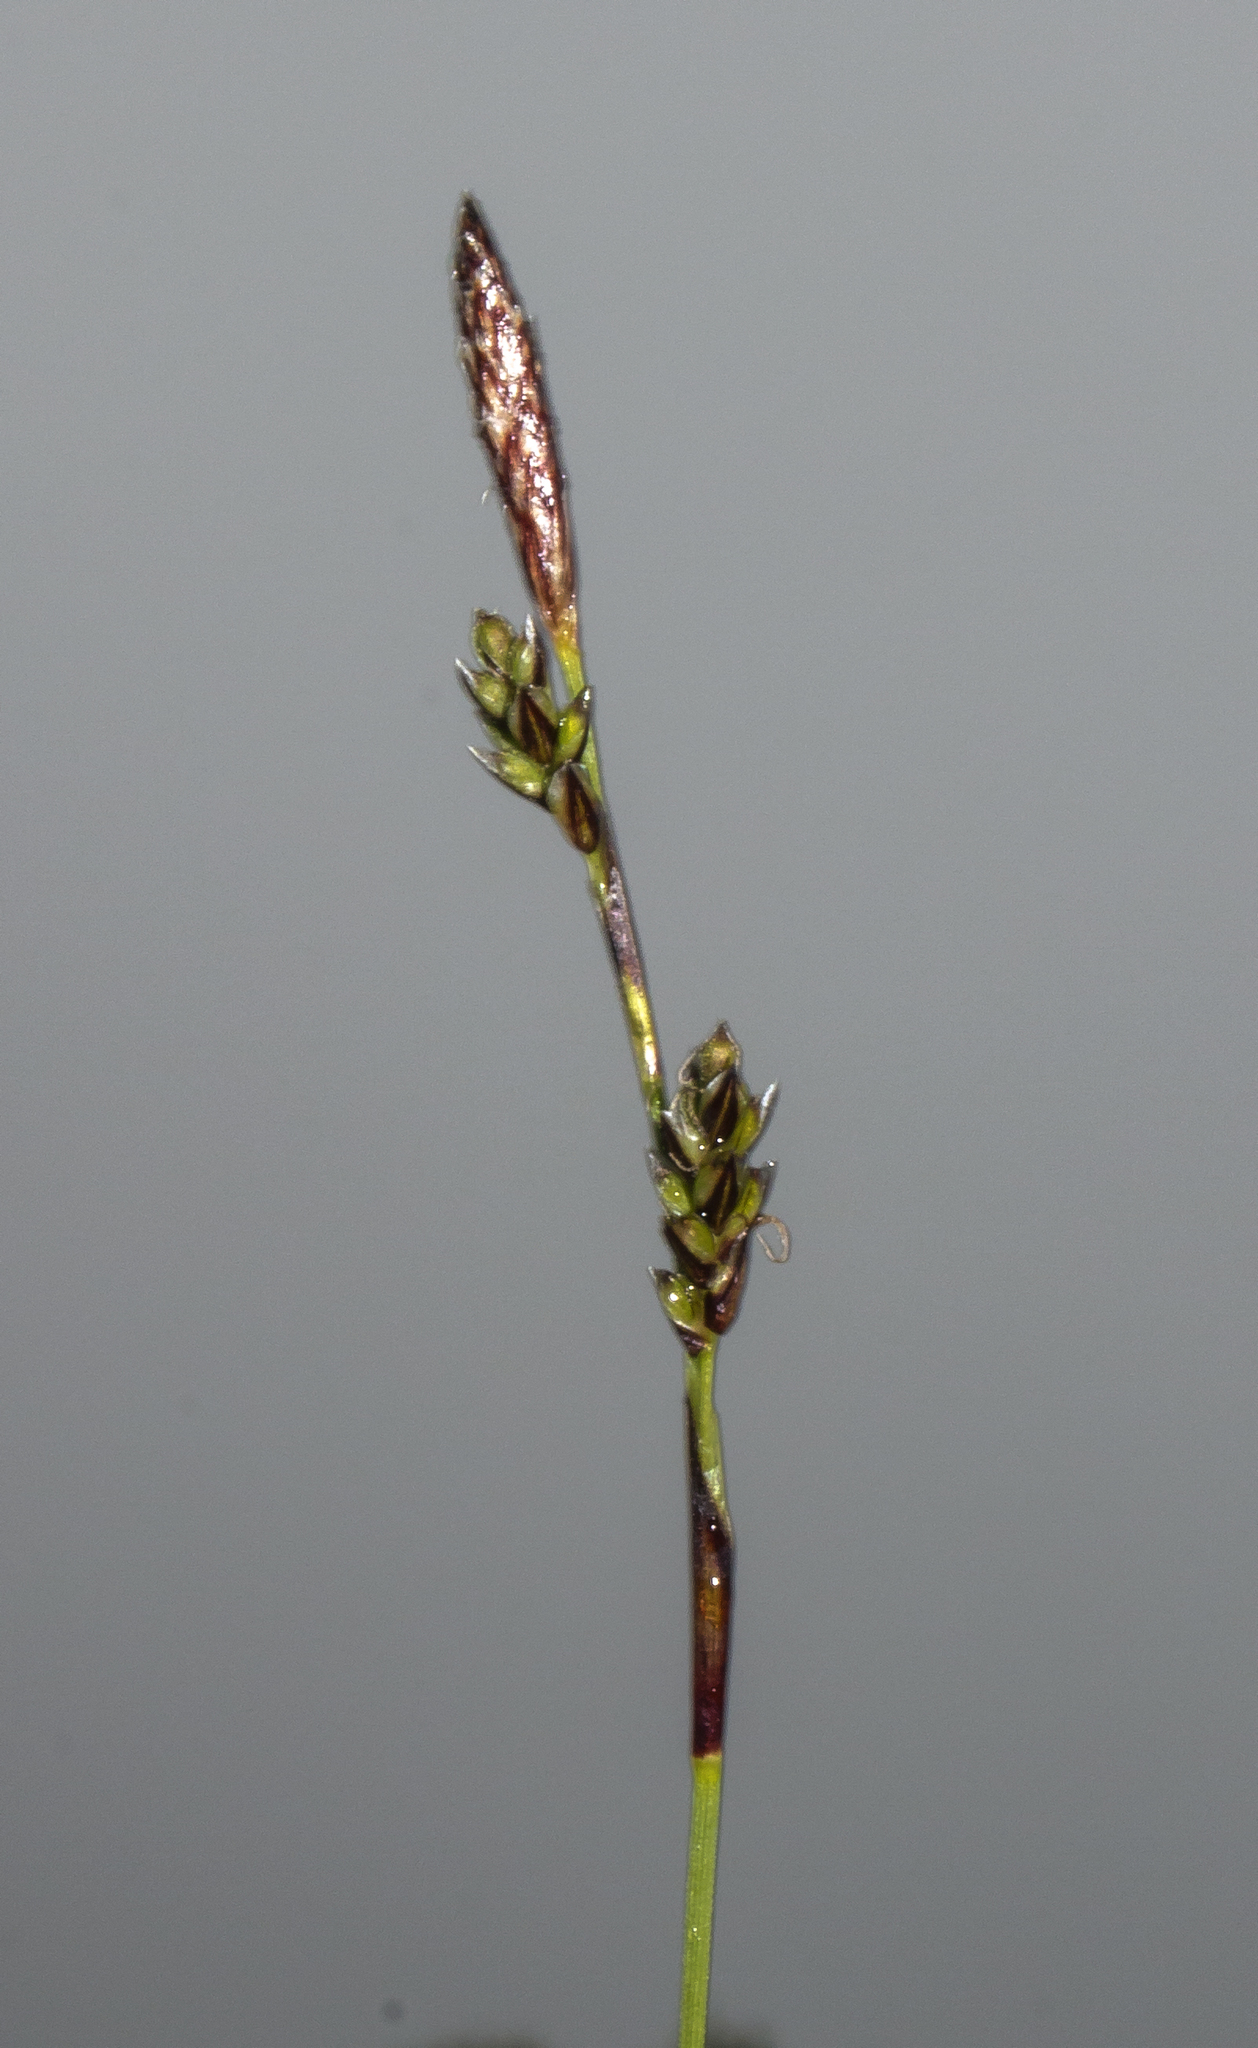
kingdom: Plantae
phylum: Tracheophyta
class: Liliopsida
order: Poales
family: Cyperaceae
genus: Carex
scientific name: Carex richardsonii
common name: Prairie hummock sedge
